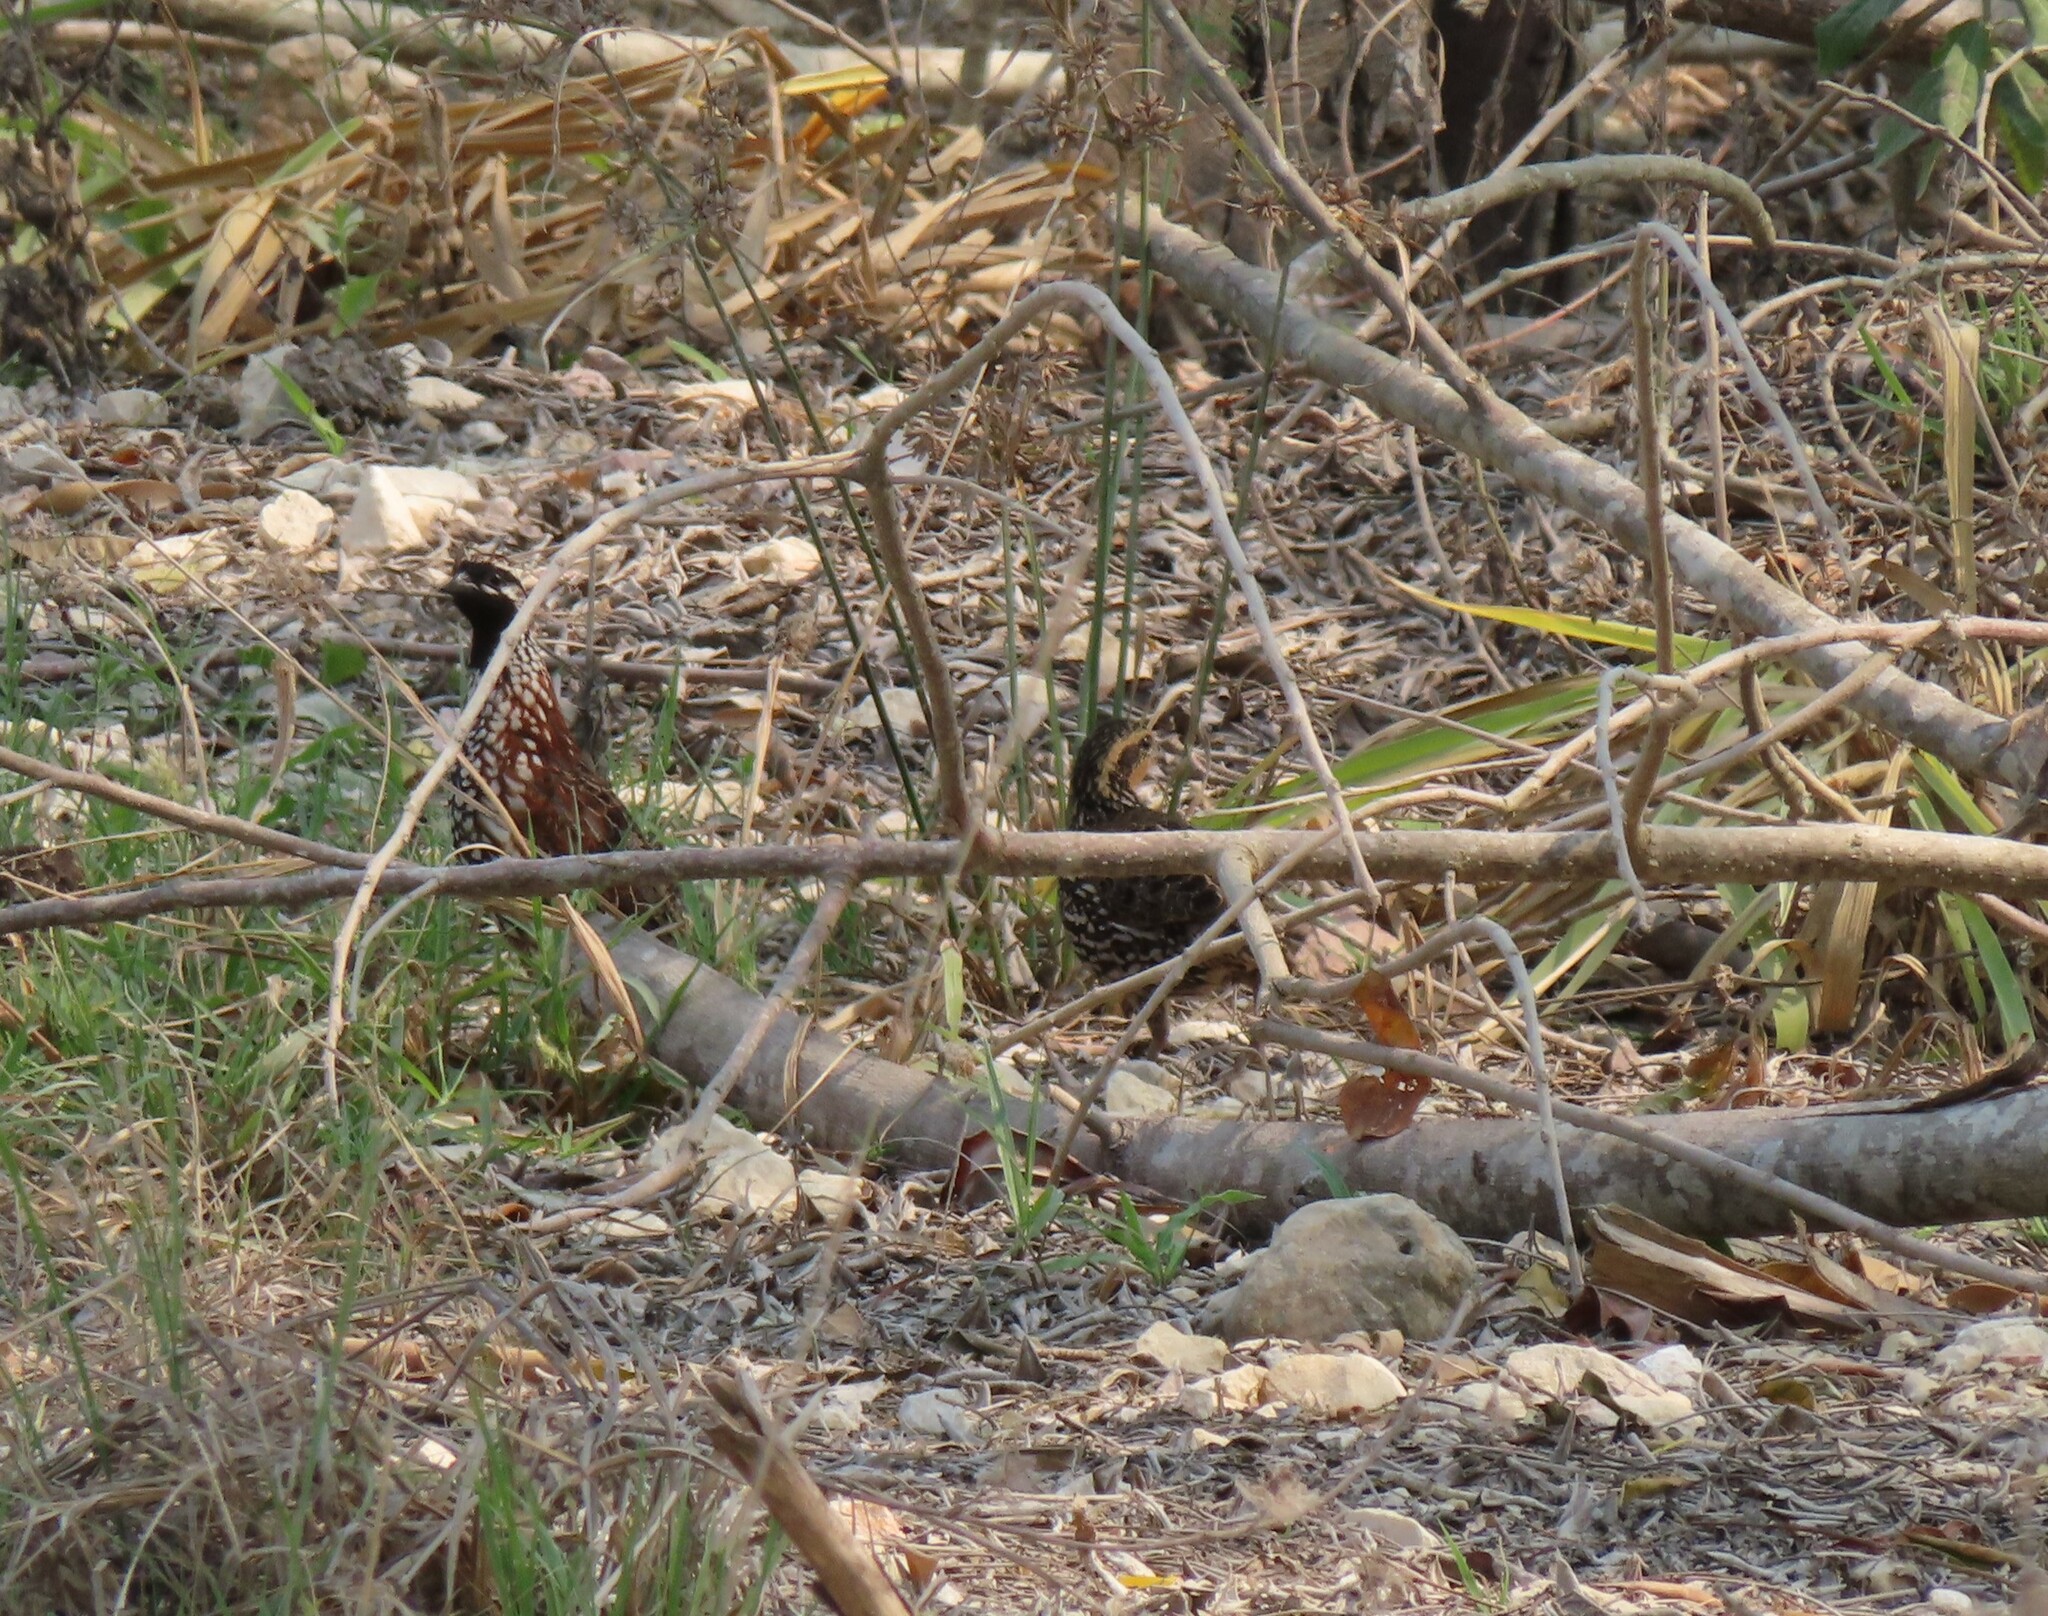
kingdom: Animalia
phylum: Chordata
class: Aves
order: Galliformes
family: Odontophoridae
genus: Colinus
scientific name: Colinus nigrogularis
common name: Yucatan bobwhite
